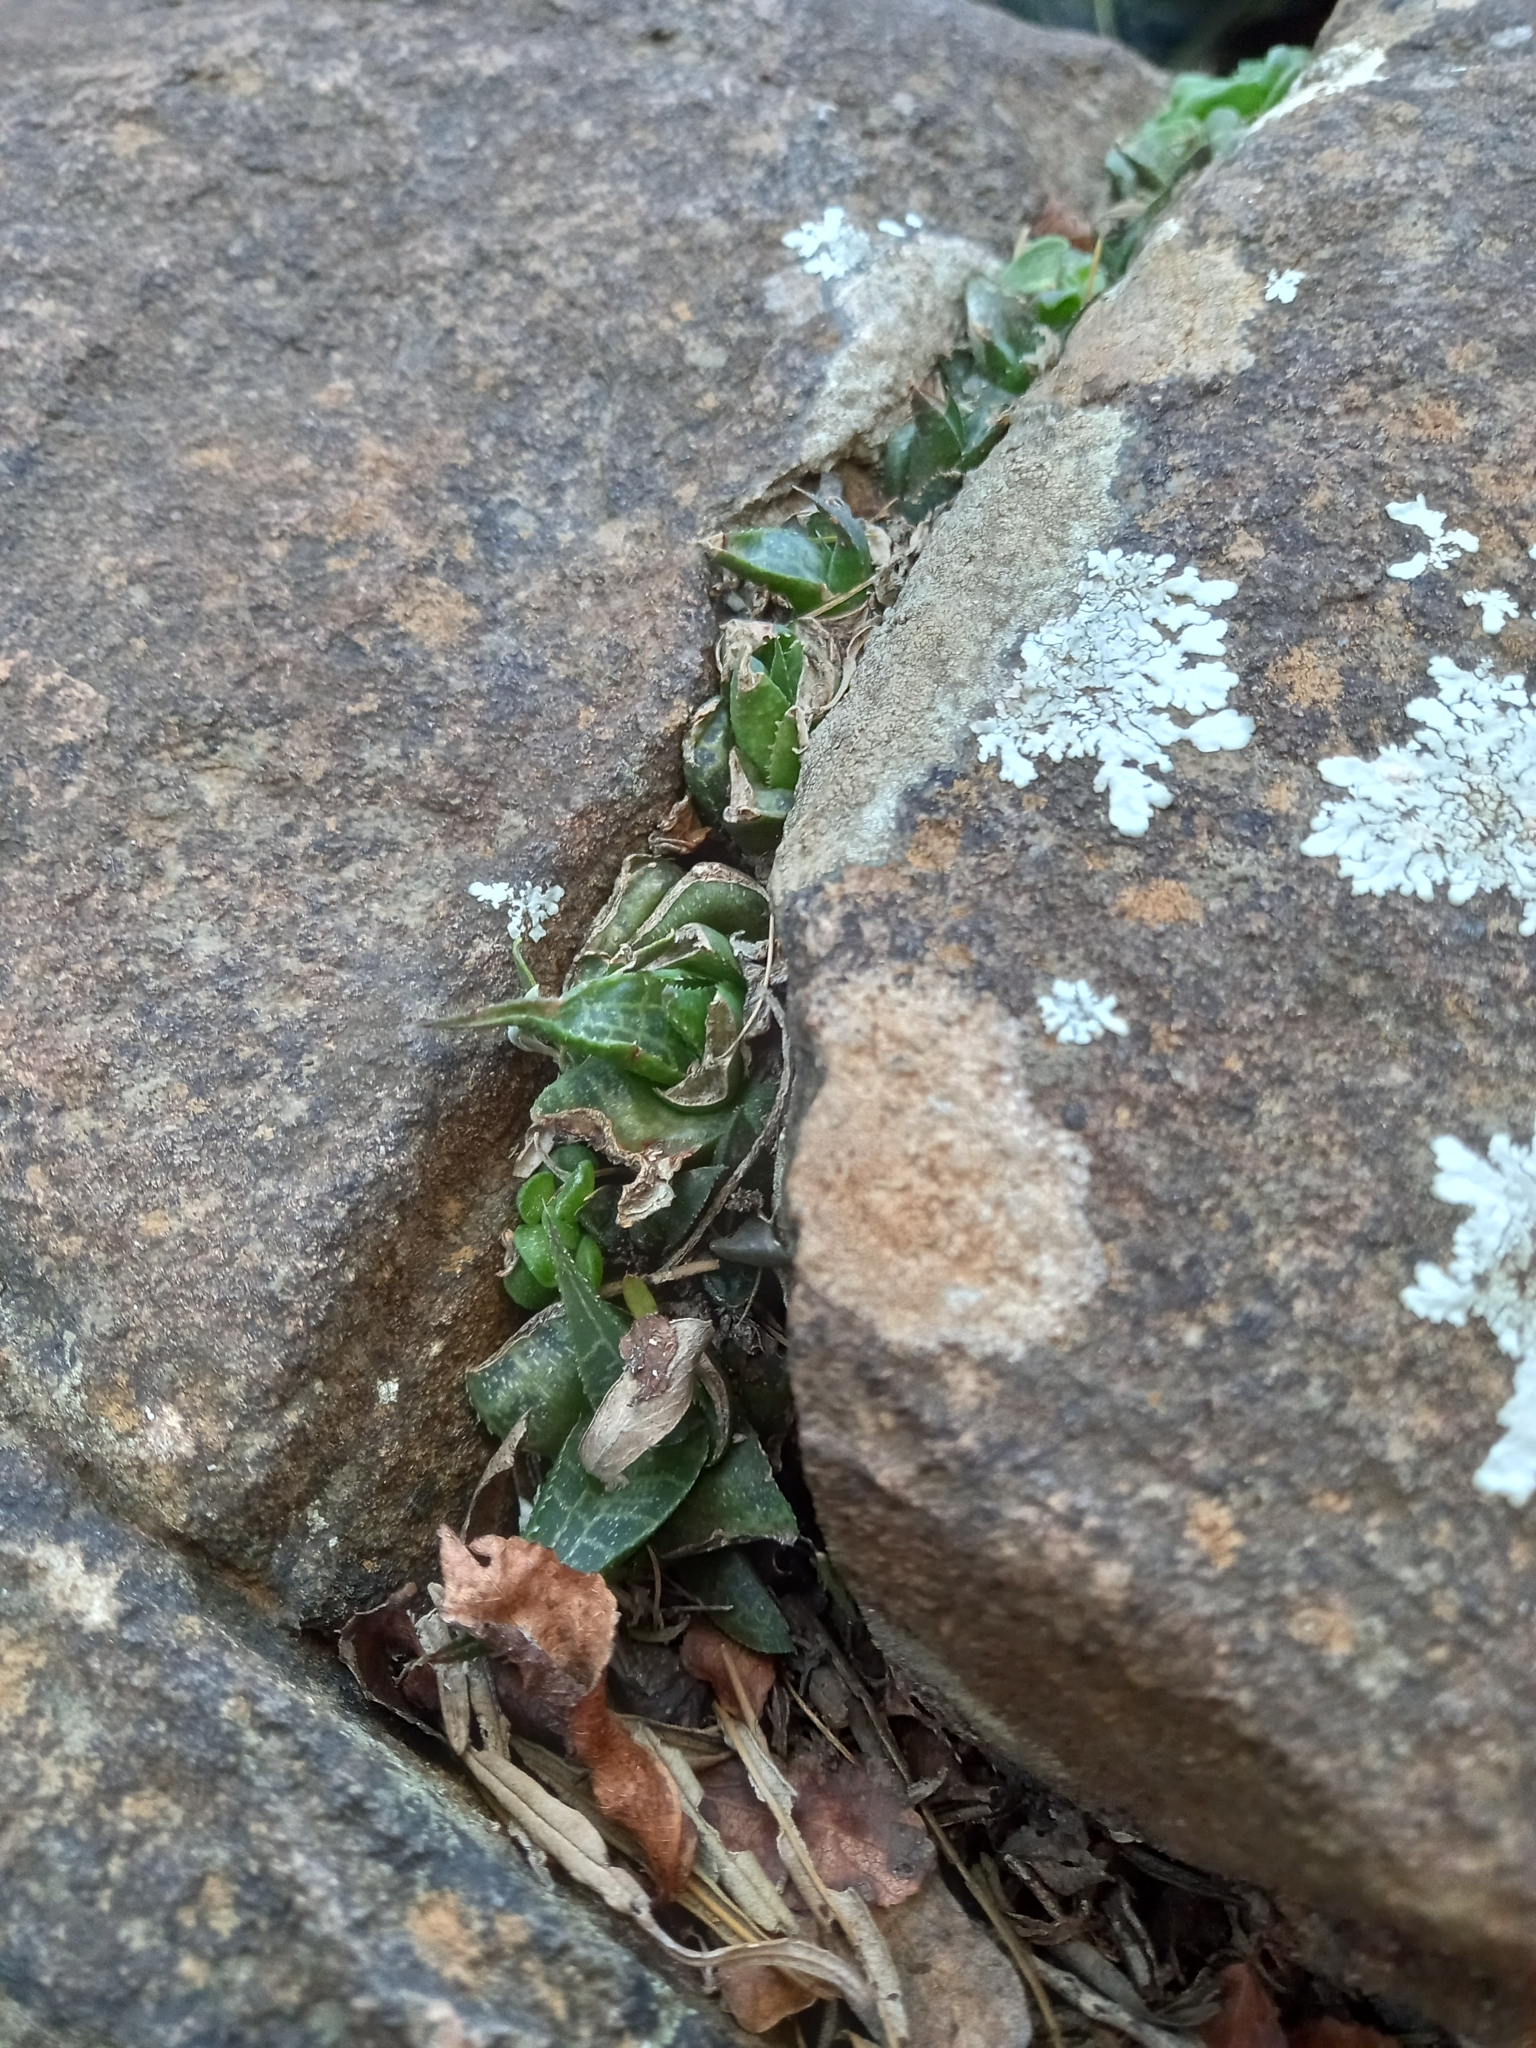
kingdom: Plantae
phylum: Tracheophyta
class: Liliopsida
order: Asparagales
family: Asphodelaceae
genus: Haworthiopsis
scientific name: Haworthiopsis tessellata
